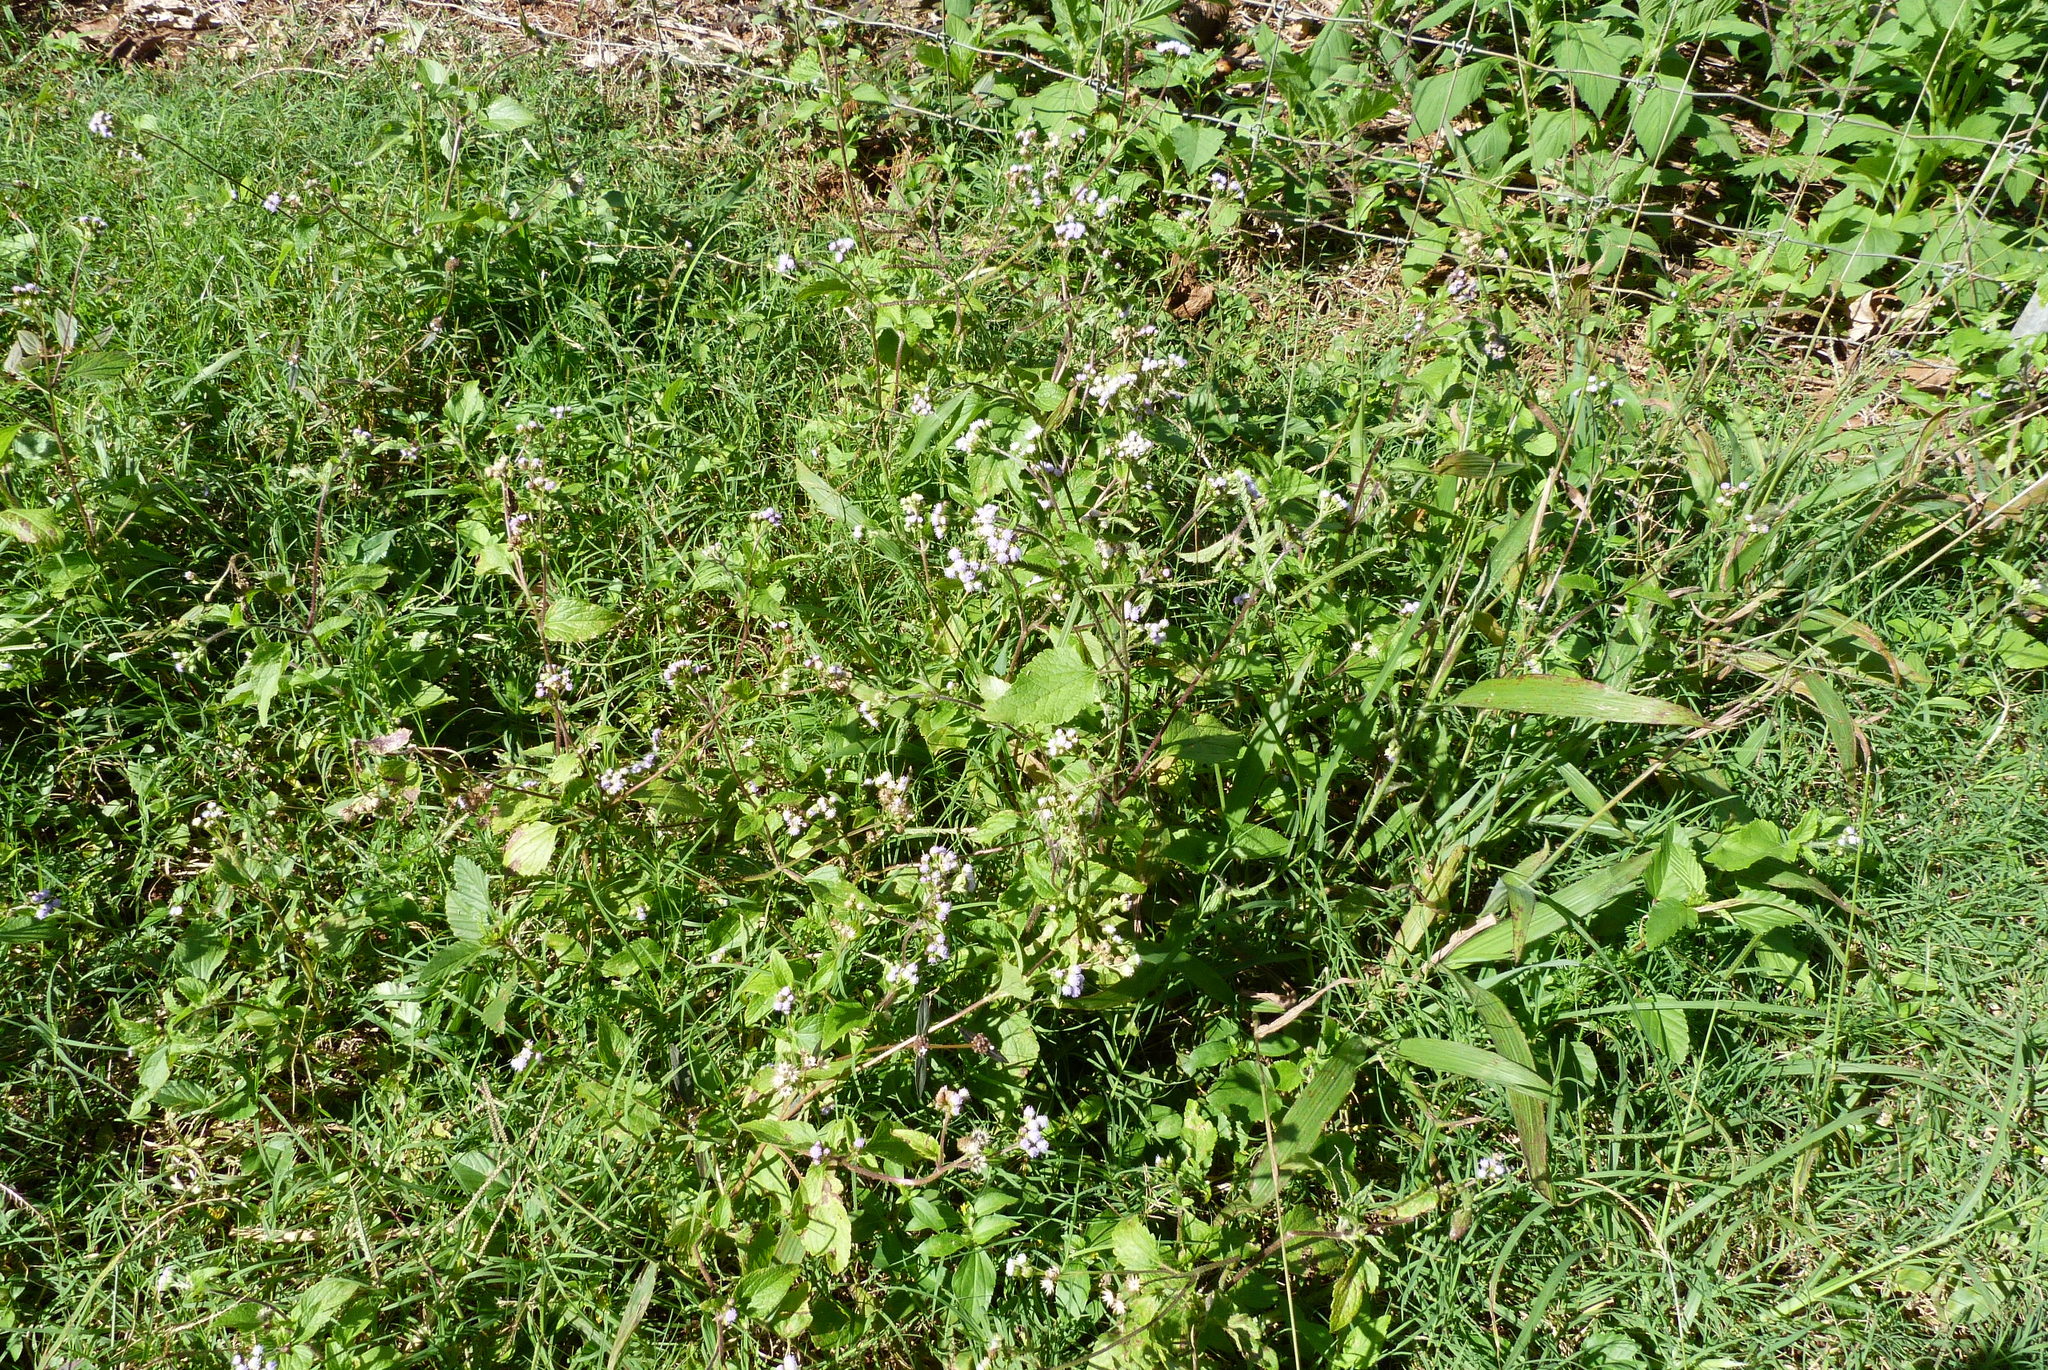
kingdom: Plantae
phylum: Tracheophyta
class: Magnoliopsida
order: Asterales
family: Asteraceae
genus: Ageratum
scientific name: Ageratum conyzoides
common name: Tropical whiteweed
